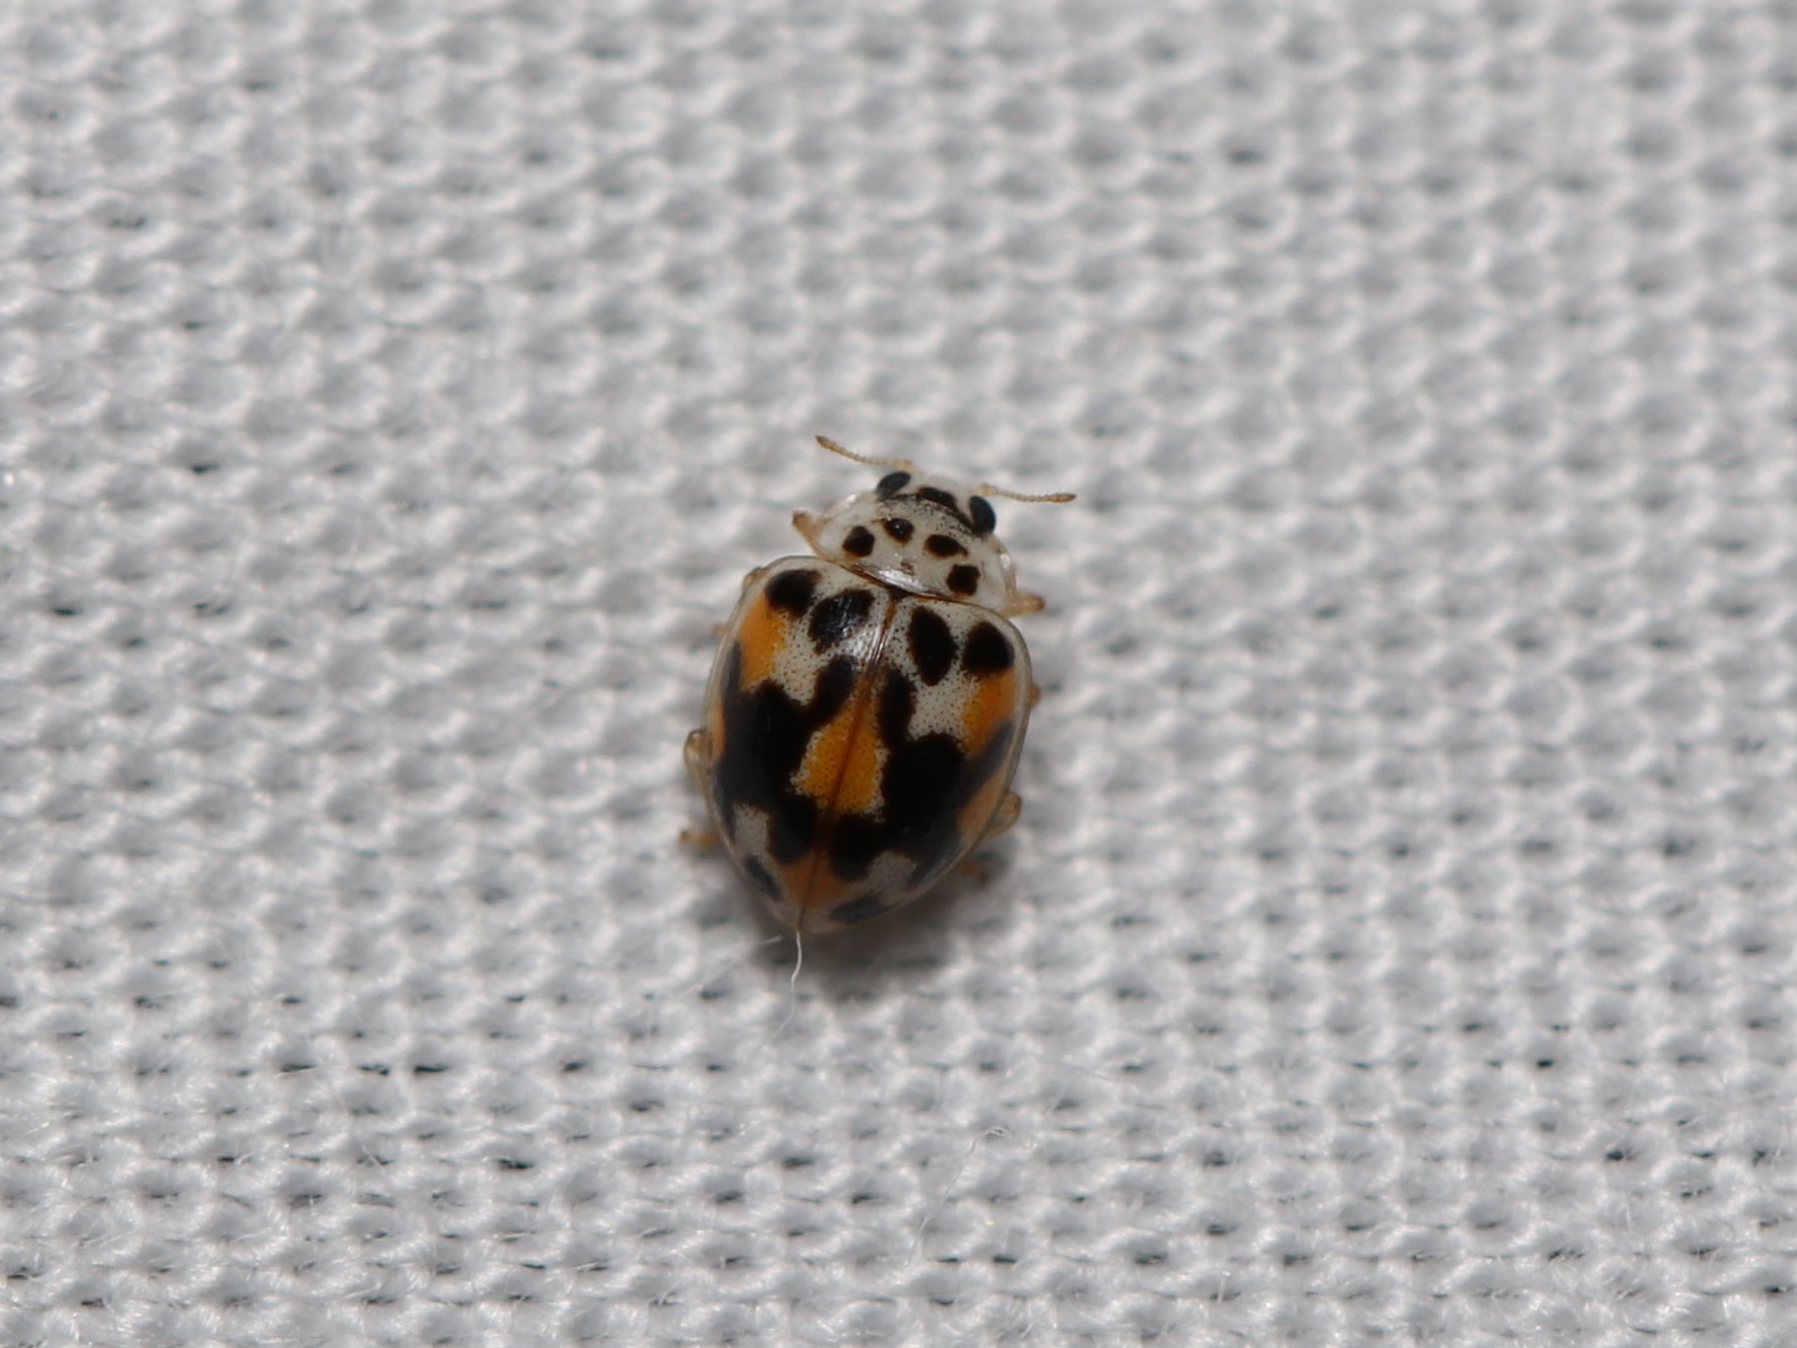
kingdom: Animalia
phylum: Arthropoda
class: Insecta
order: Coleoptera
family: Coccinellidae
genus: Psyllobora
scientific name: Psyllobora vigintimaculata
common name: Ladybird beetle
